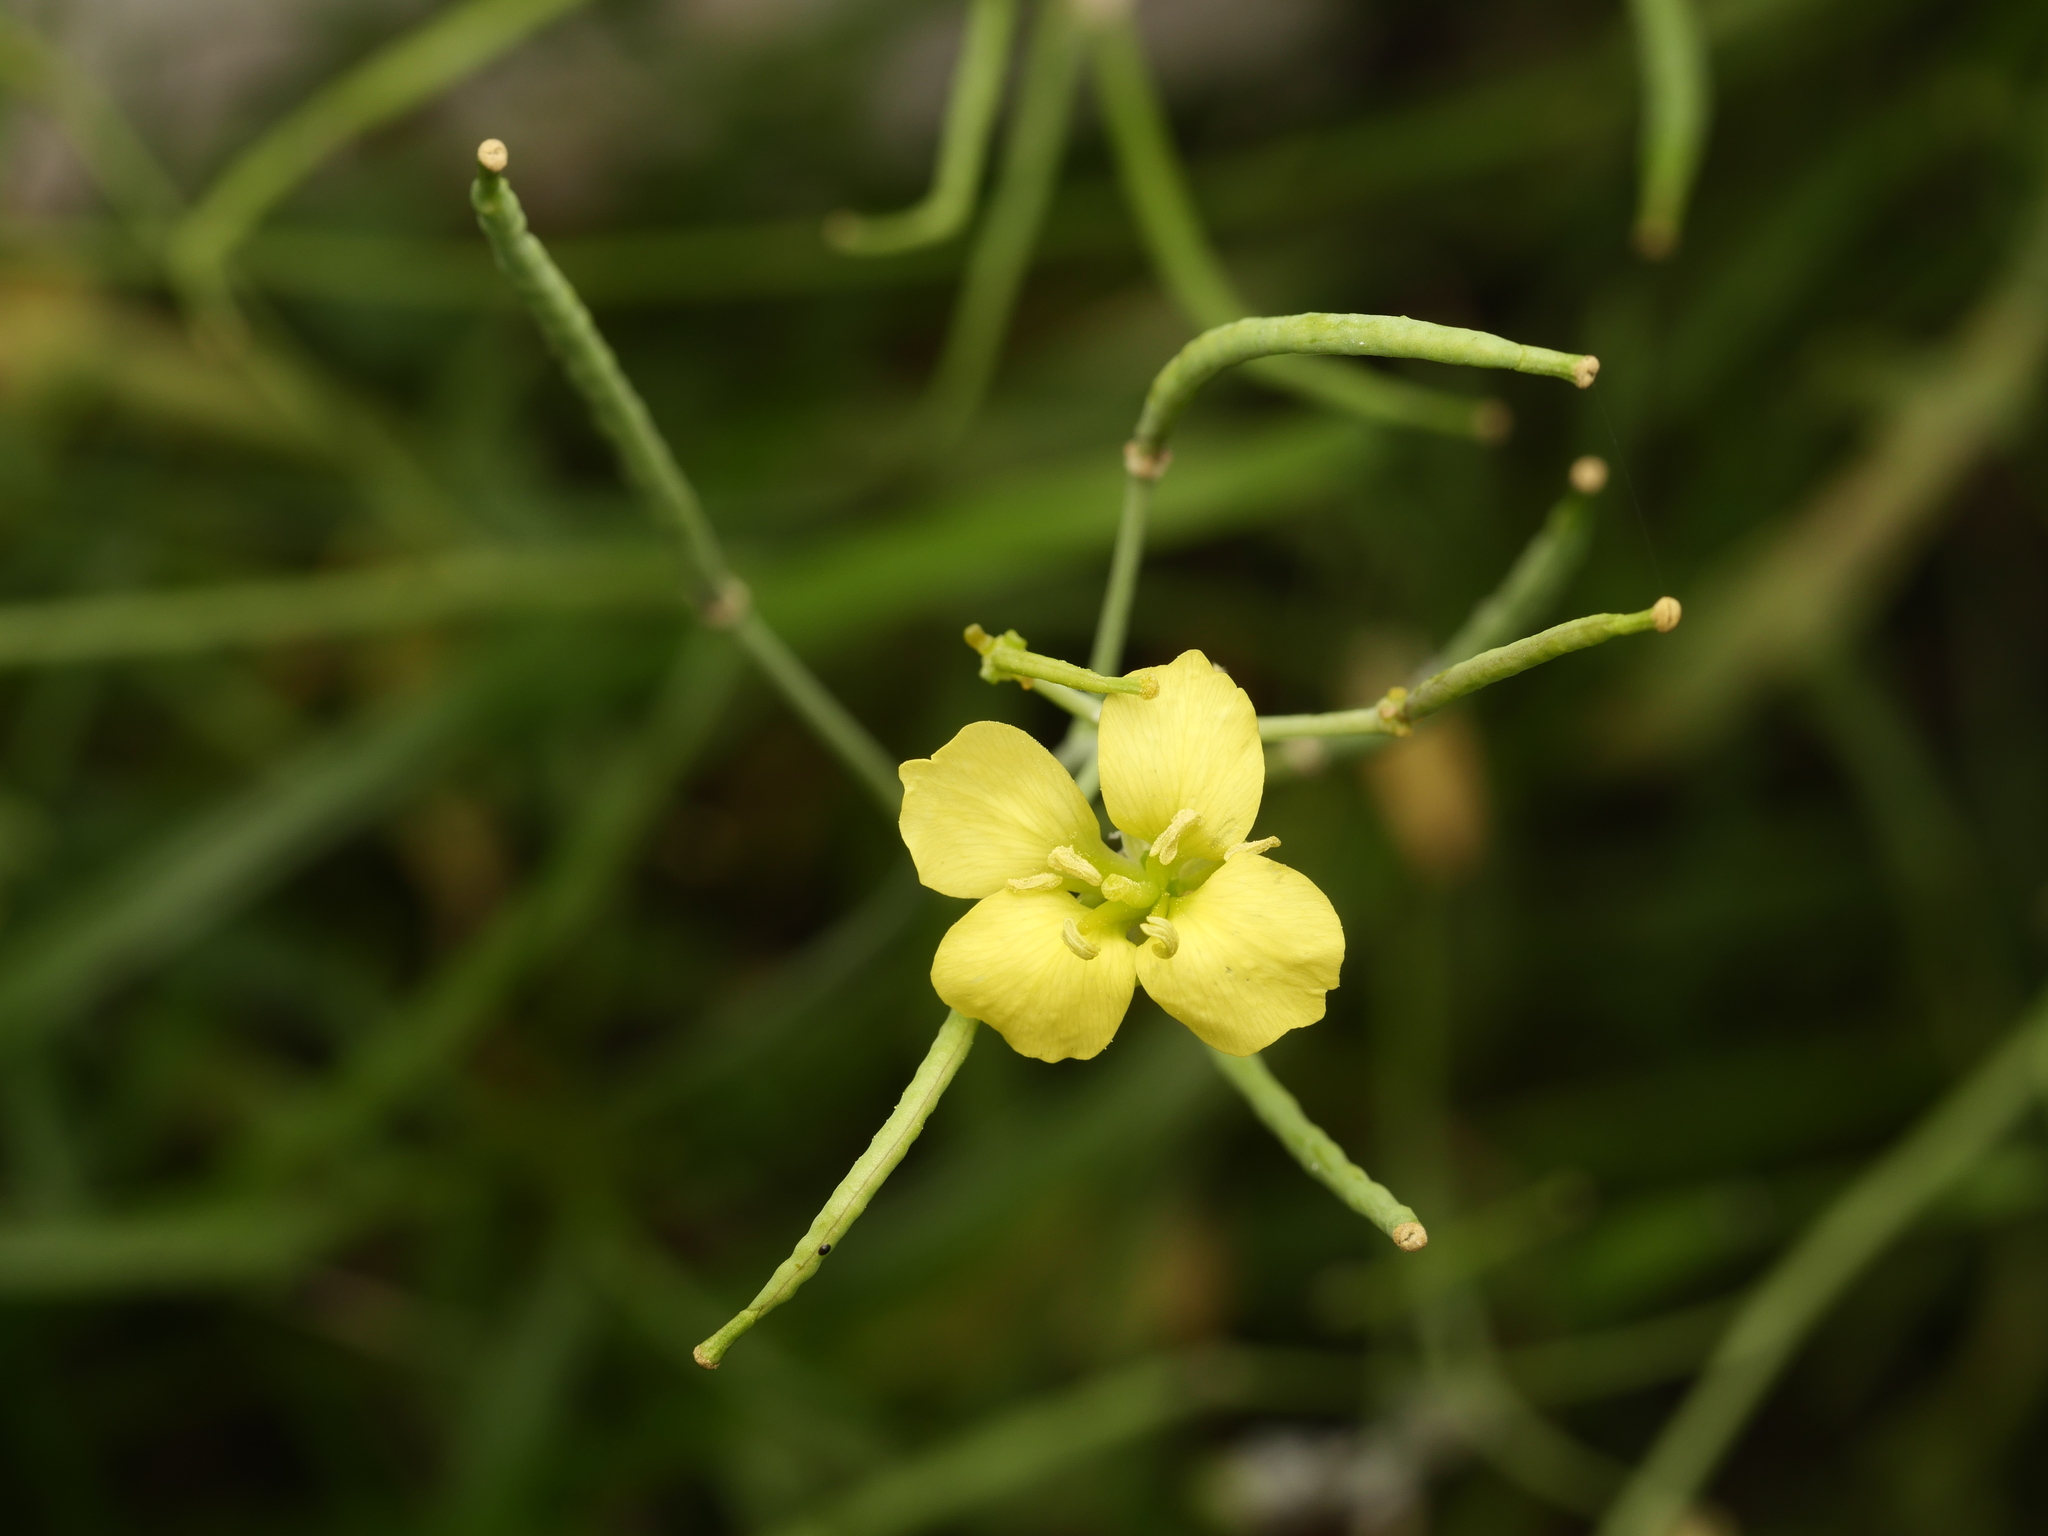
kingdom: Plantae
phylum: Tracheophyta
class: Magnoliopsida
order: Brassicales
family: Brassicaceae
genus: Diplotaxis
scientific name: Diplotaxis tenuifolia
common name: Perennial wall-rocket
